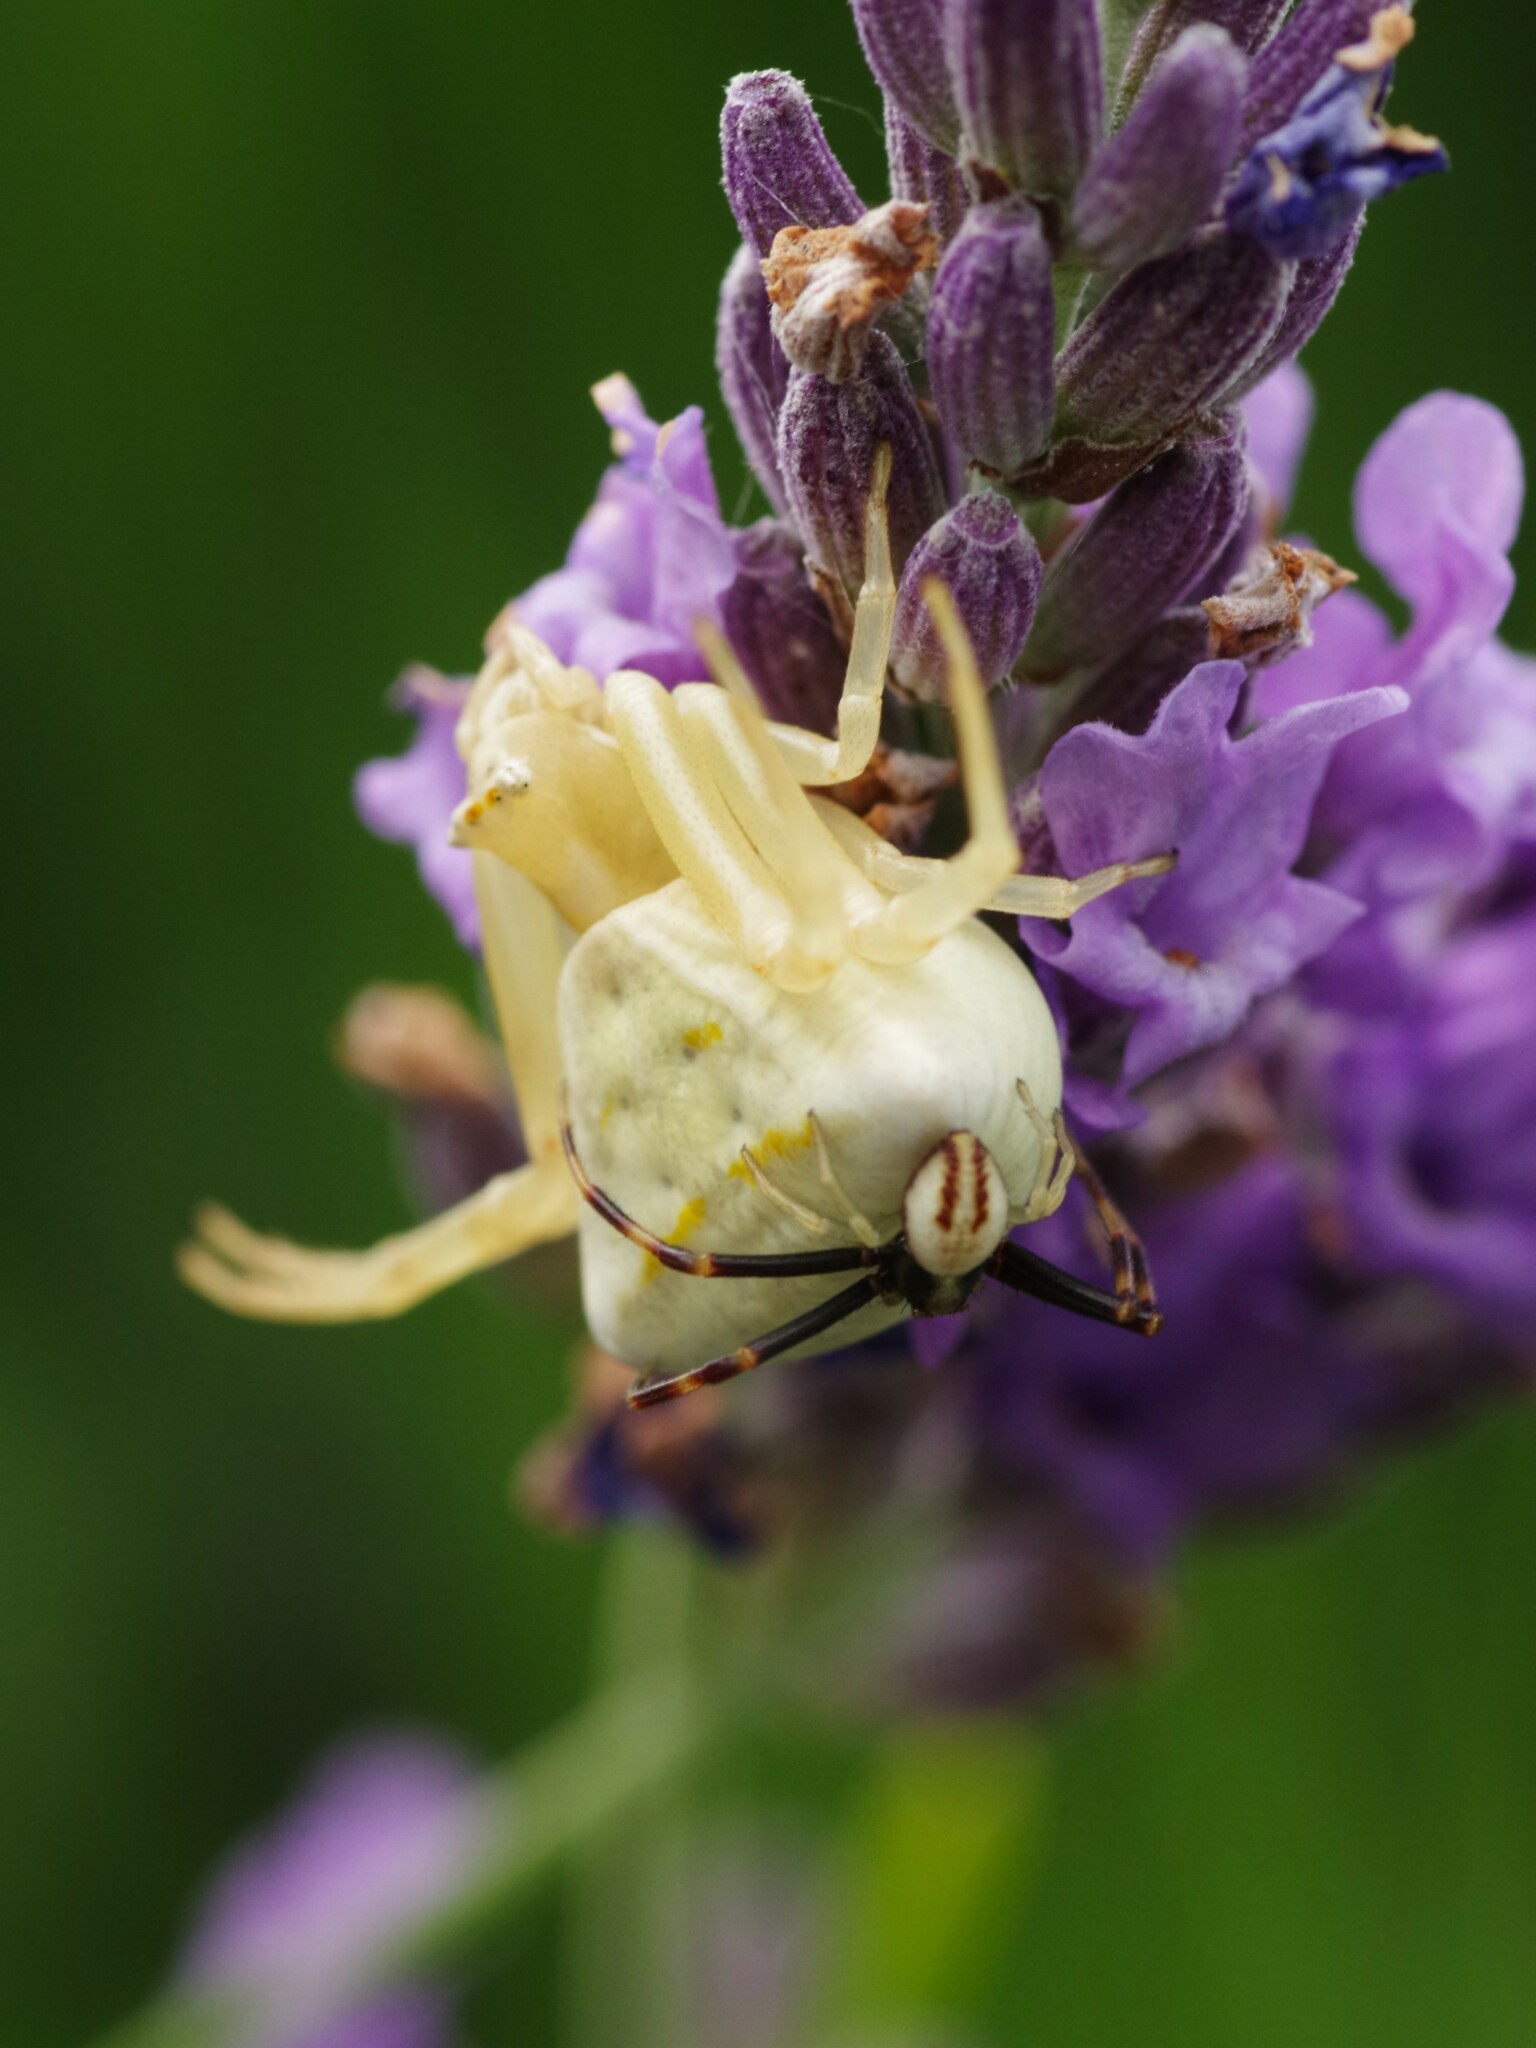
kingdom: Animalia
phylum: Arthropoda
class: Arachnida
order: Araneae
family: Thomisidae
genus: Misumena
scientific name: Misumena vatia
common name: Goldenrod crab spider
